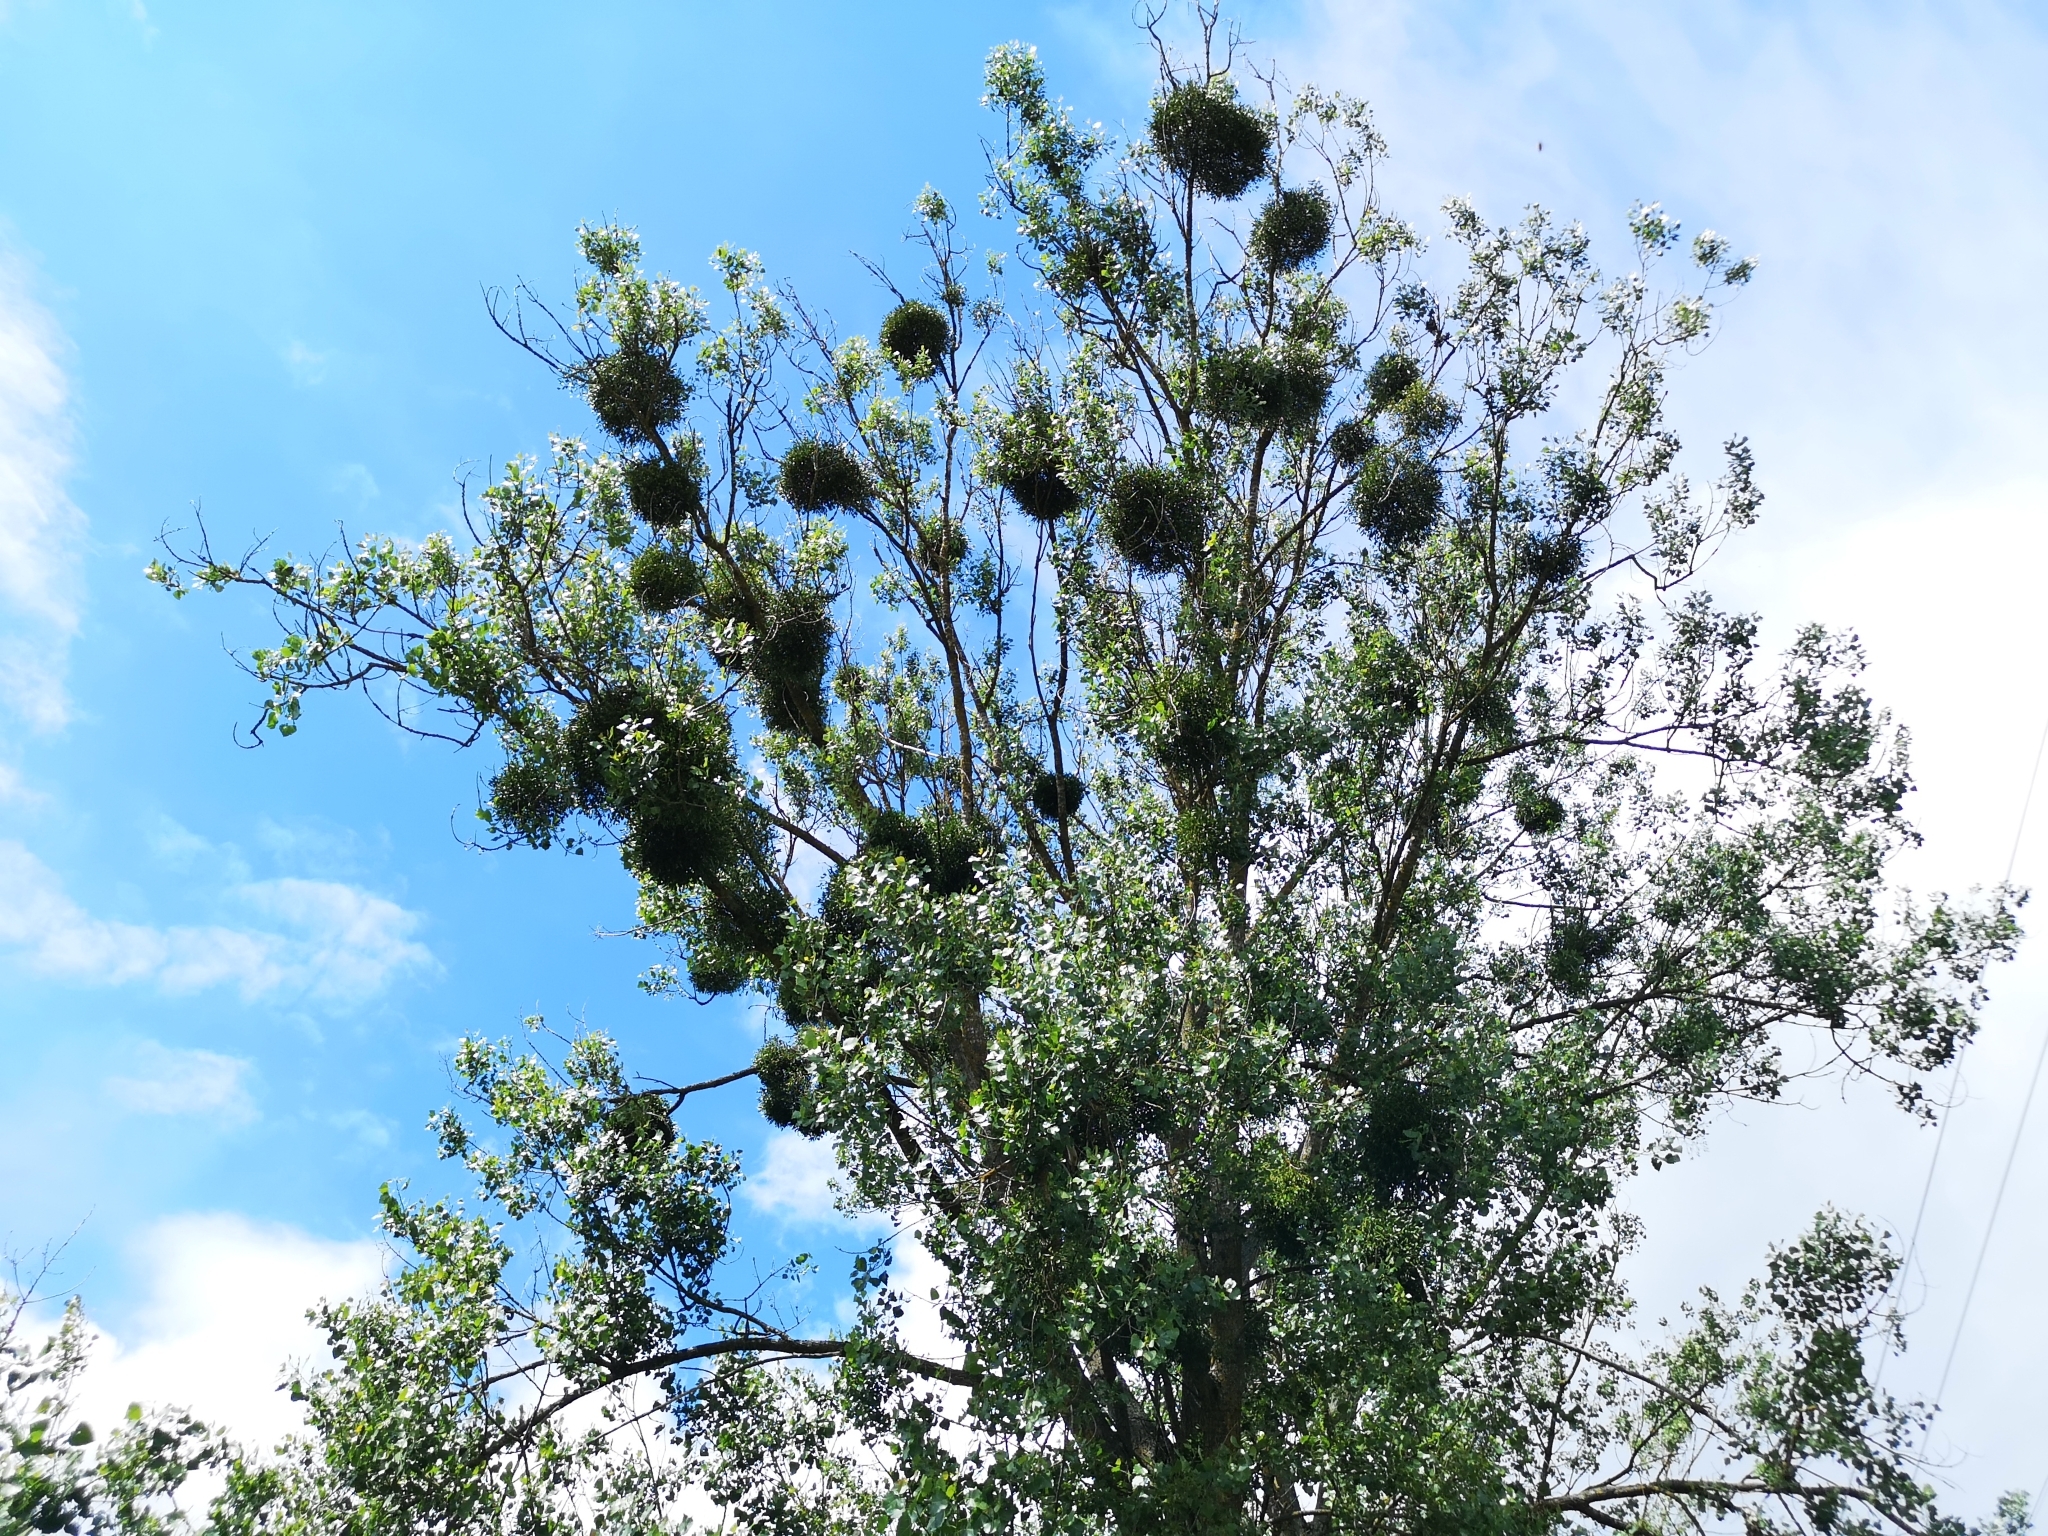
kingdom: Plantae
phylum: Tracheophyta
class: Magnoliopsida
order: Santalales
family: Viscaceae
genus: Viscum
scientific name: Viscum album
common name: Mistletoe
